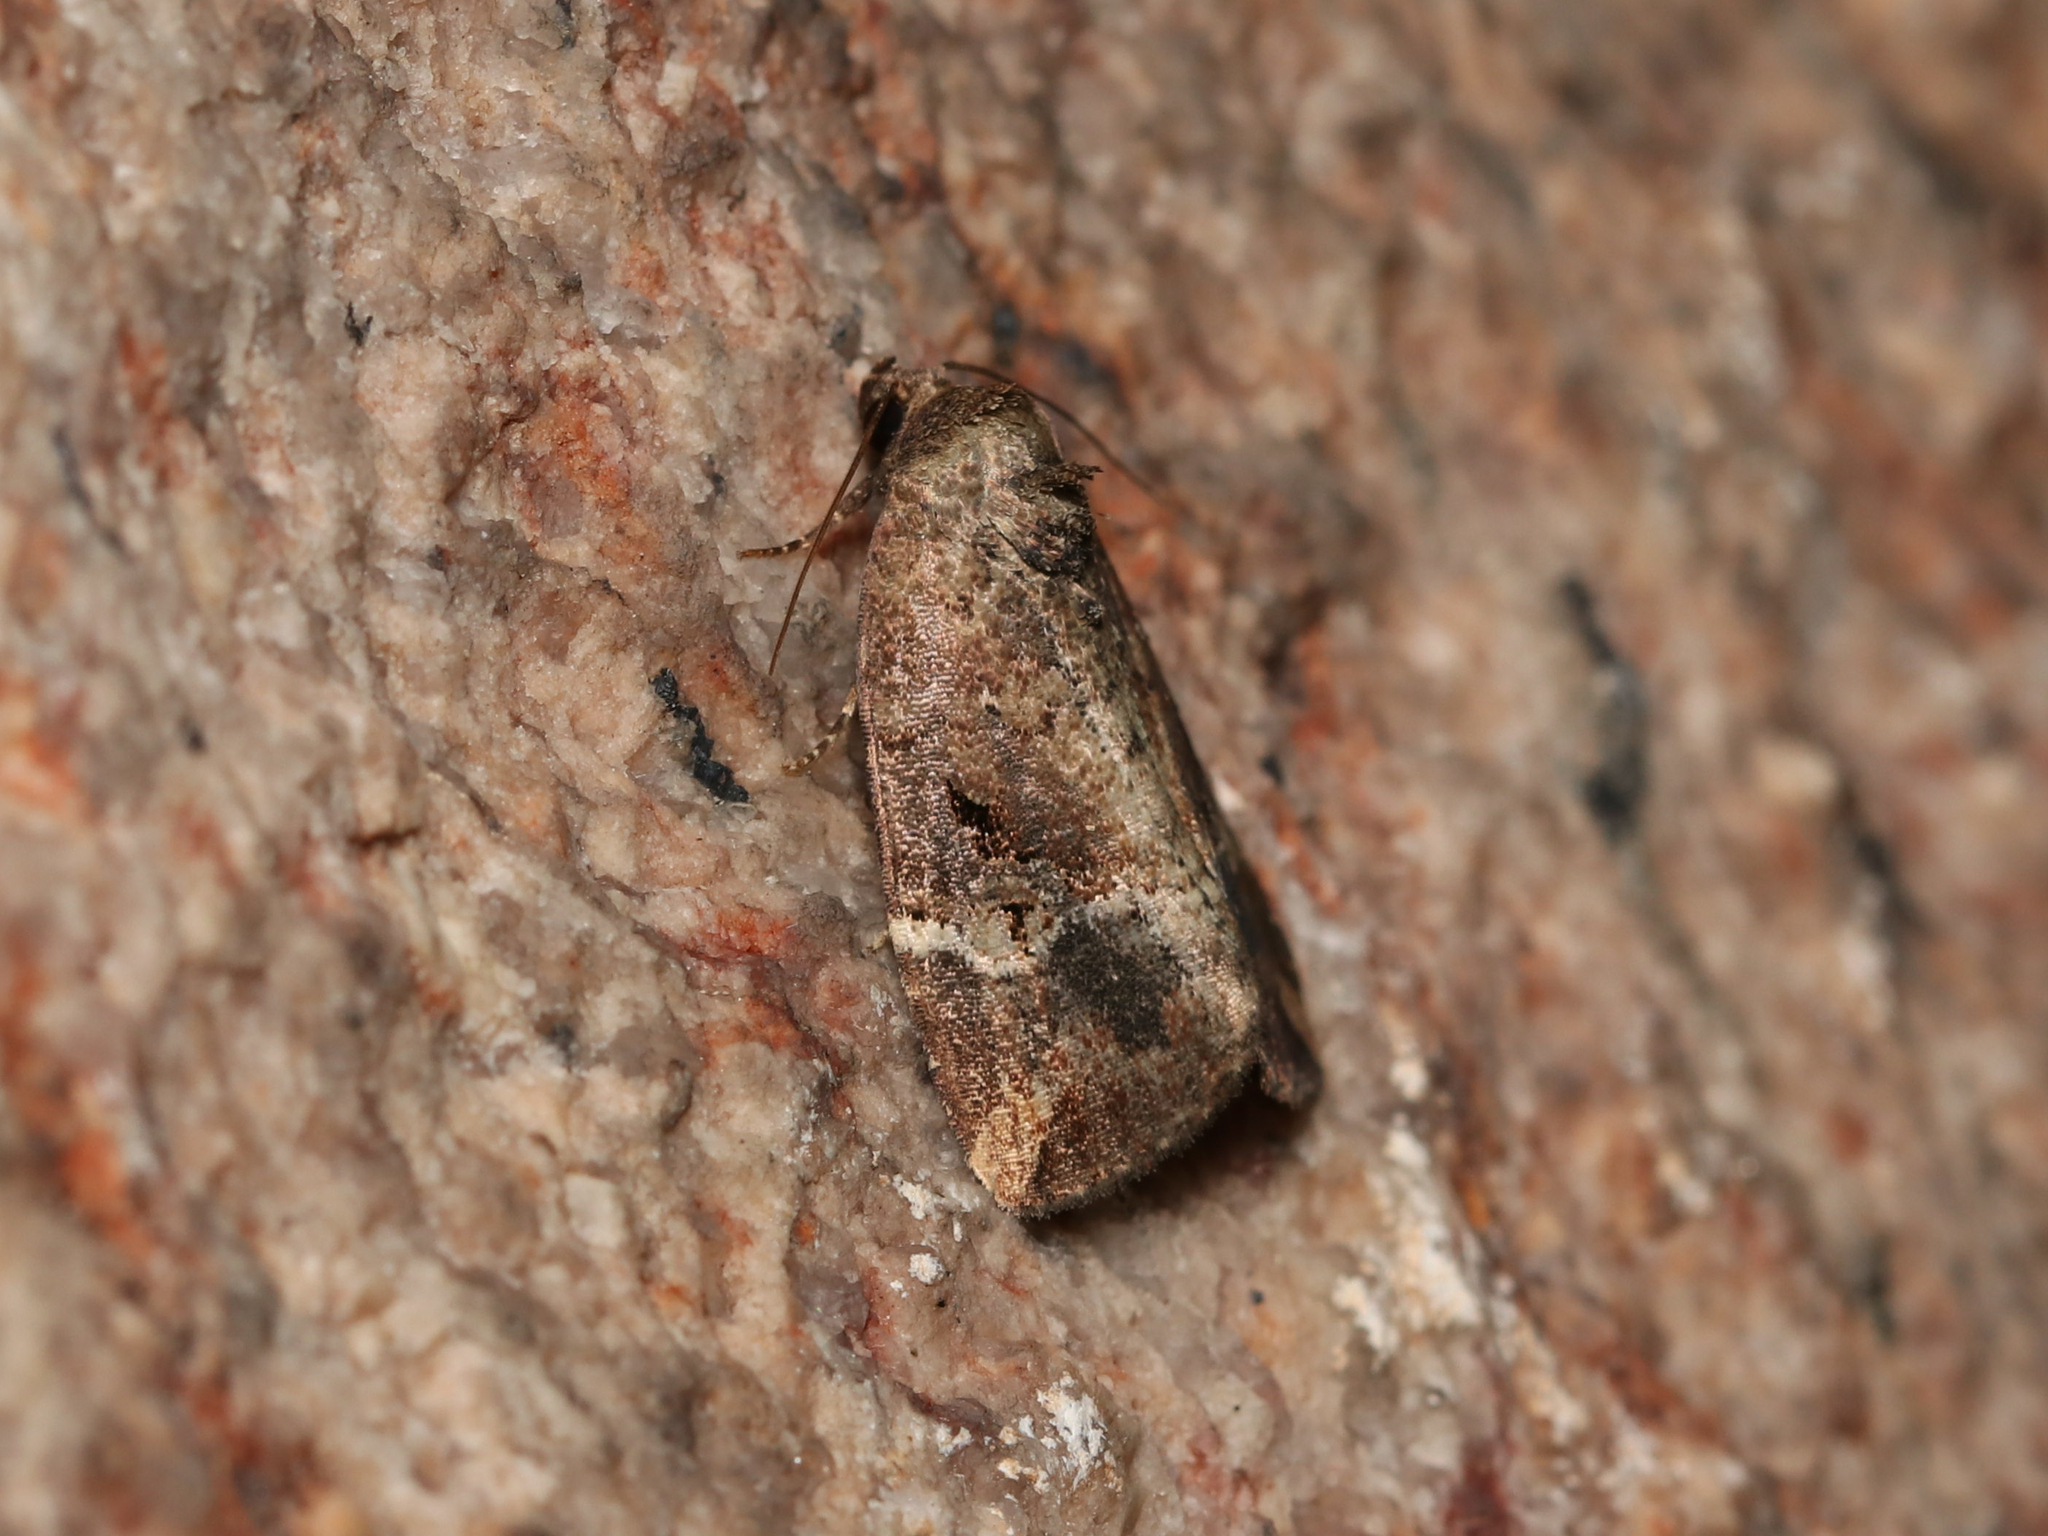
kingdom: Animalia
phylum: Arthropoda
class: Insecta
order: Lepidoptera
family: Noctuidae
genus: Elaphria
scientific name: Elaphria versicolor
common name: Fir harlequin
